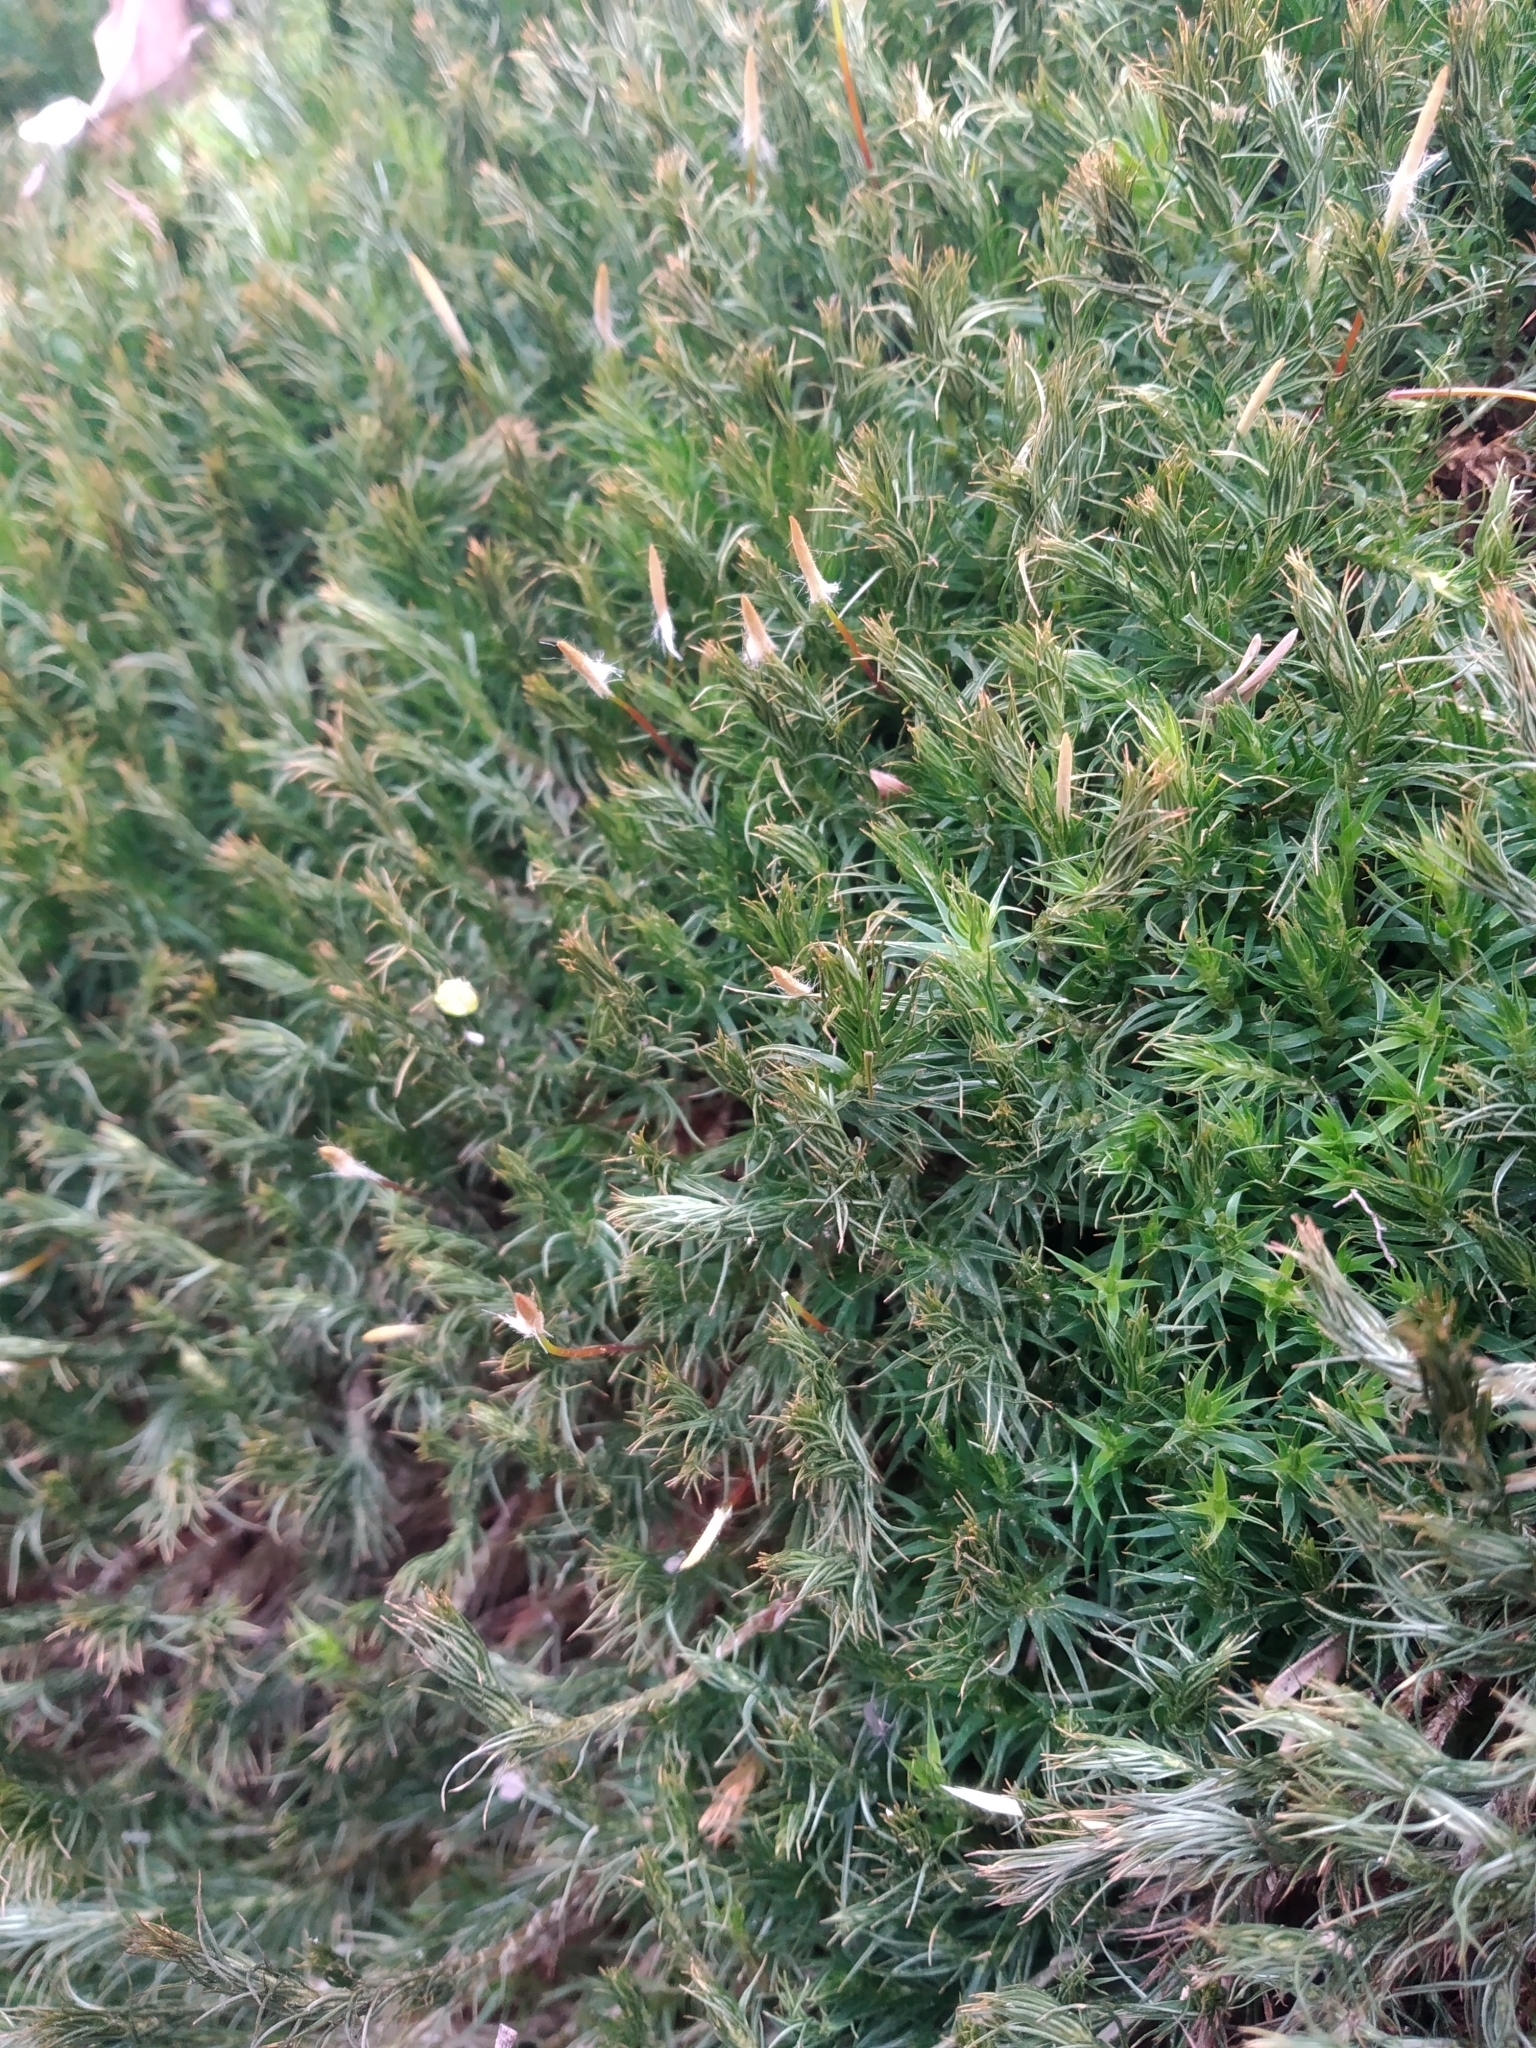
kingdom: Plantae
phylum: Bryophyta
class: Polytrichopsida
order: Polytrichales
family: Polytrichaceae
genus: Polytrichum
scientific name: Polytrichum formosum
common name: Bank haircap moss
